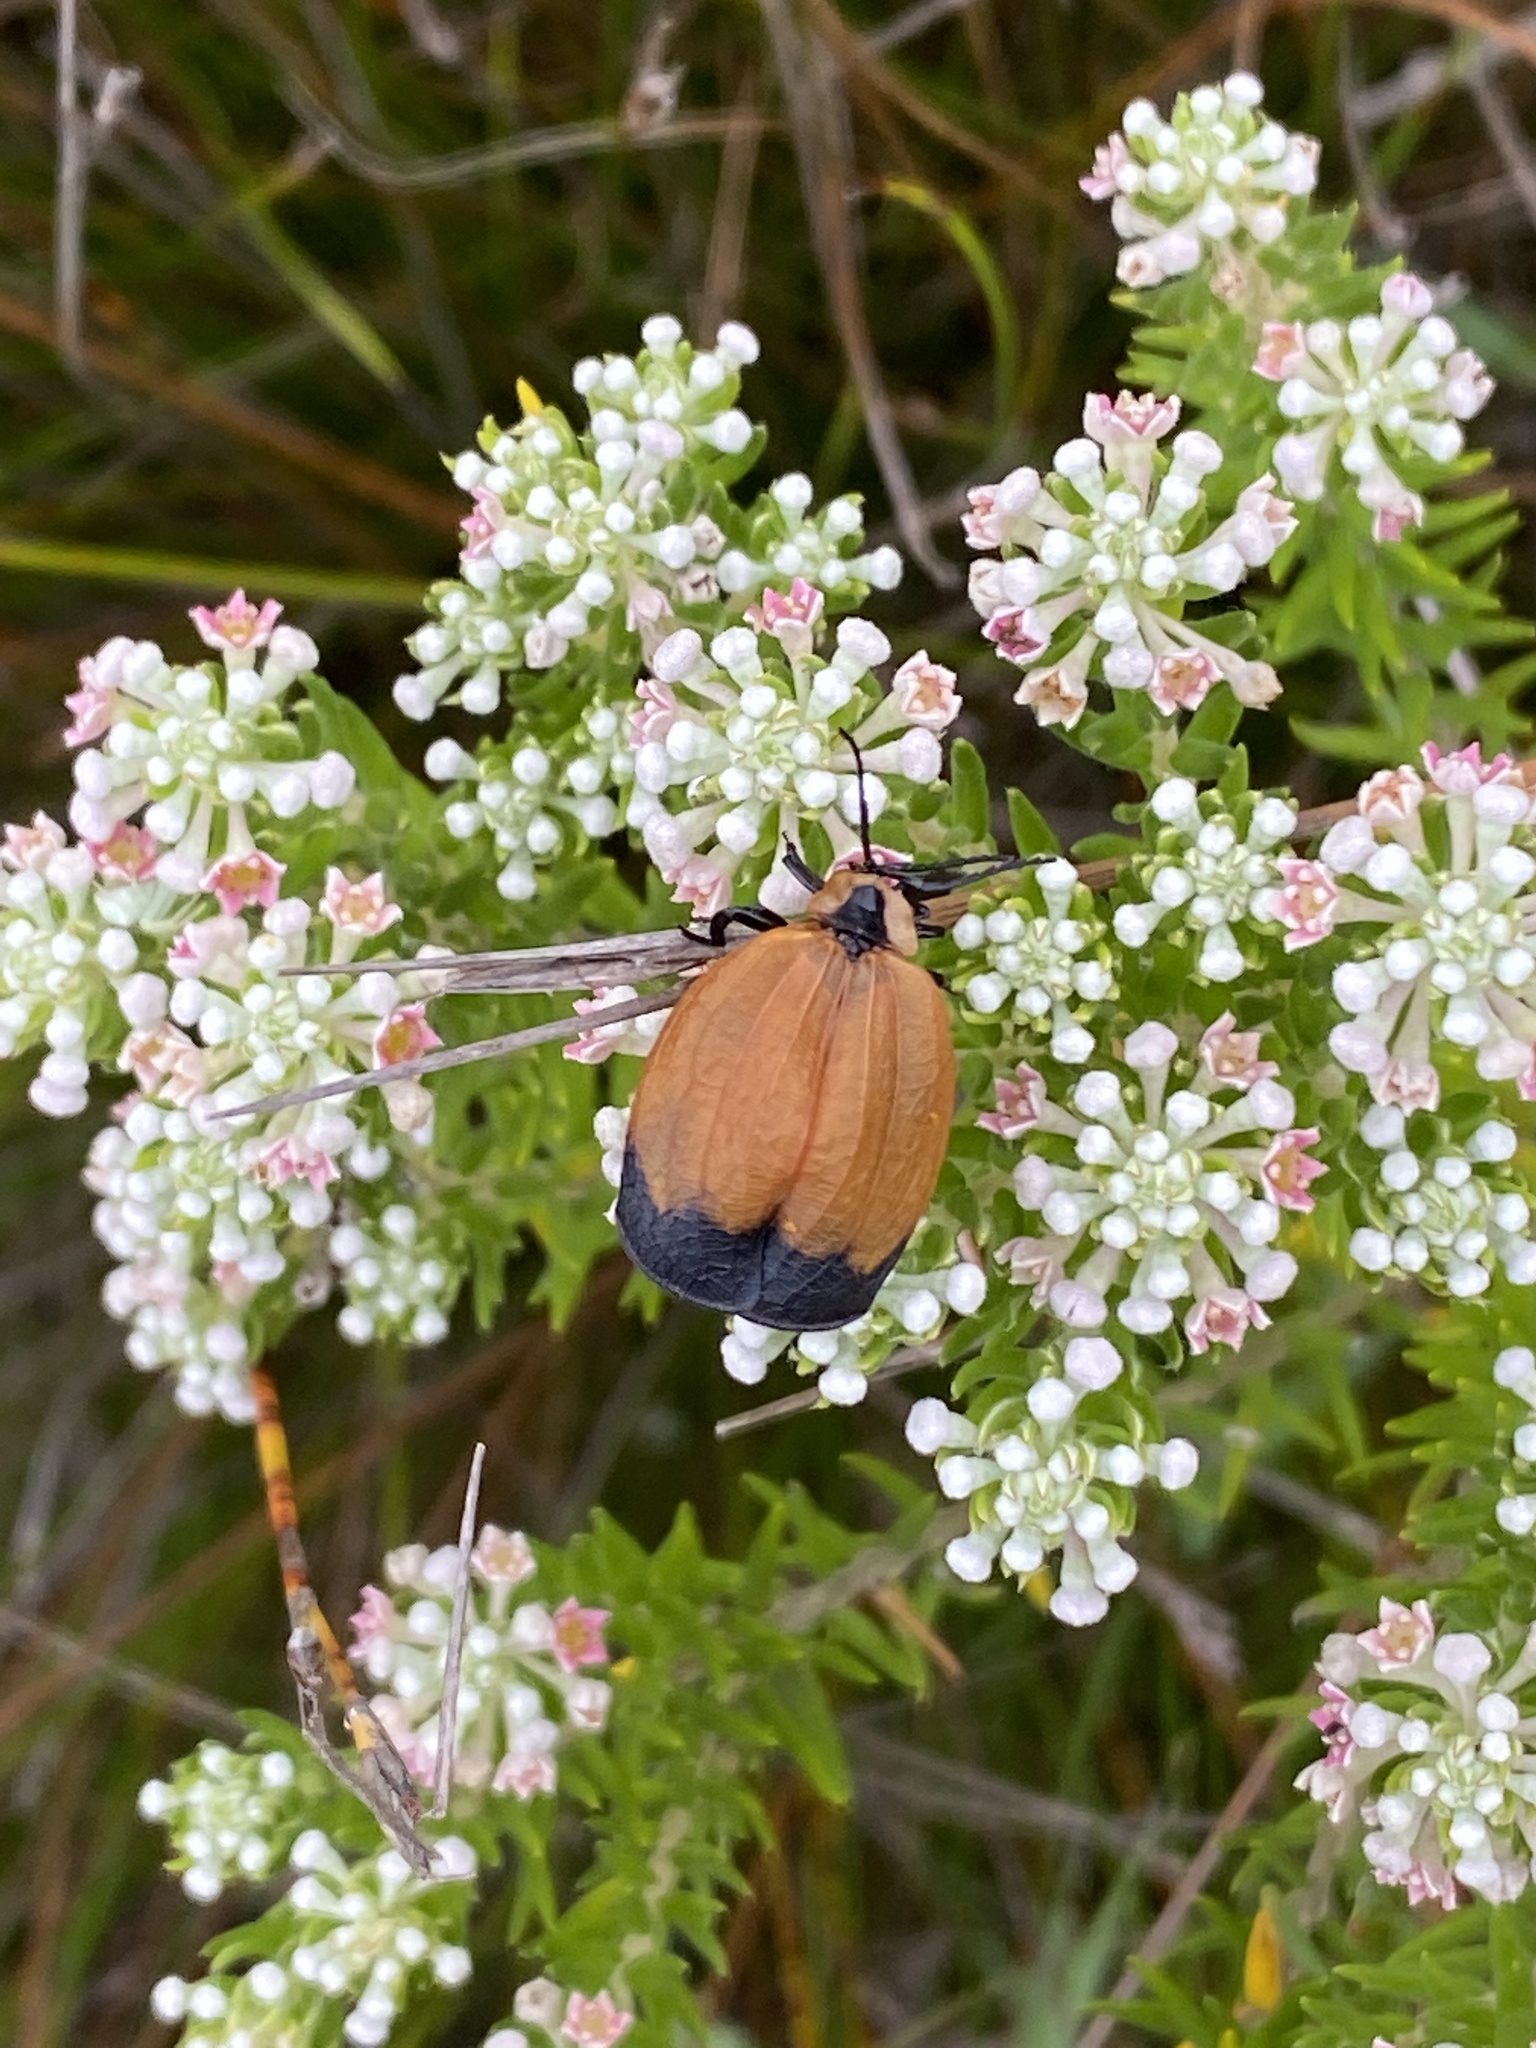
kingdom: Plantae
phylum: Tracheophyta
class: Magnoliopsida
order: Rosales
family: Rhamnaceae
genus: Phylica
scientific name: Phylica pinea
